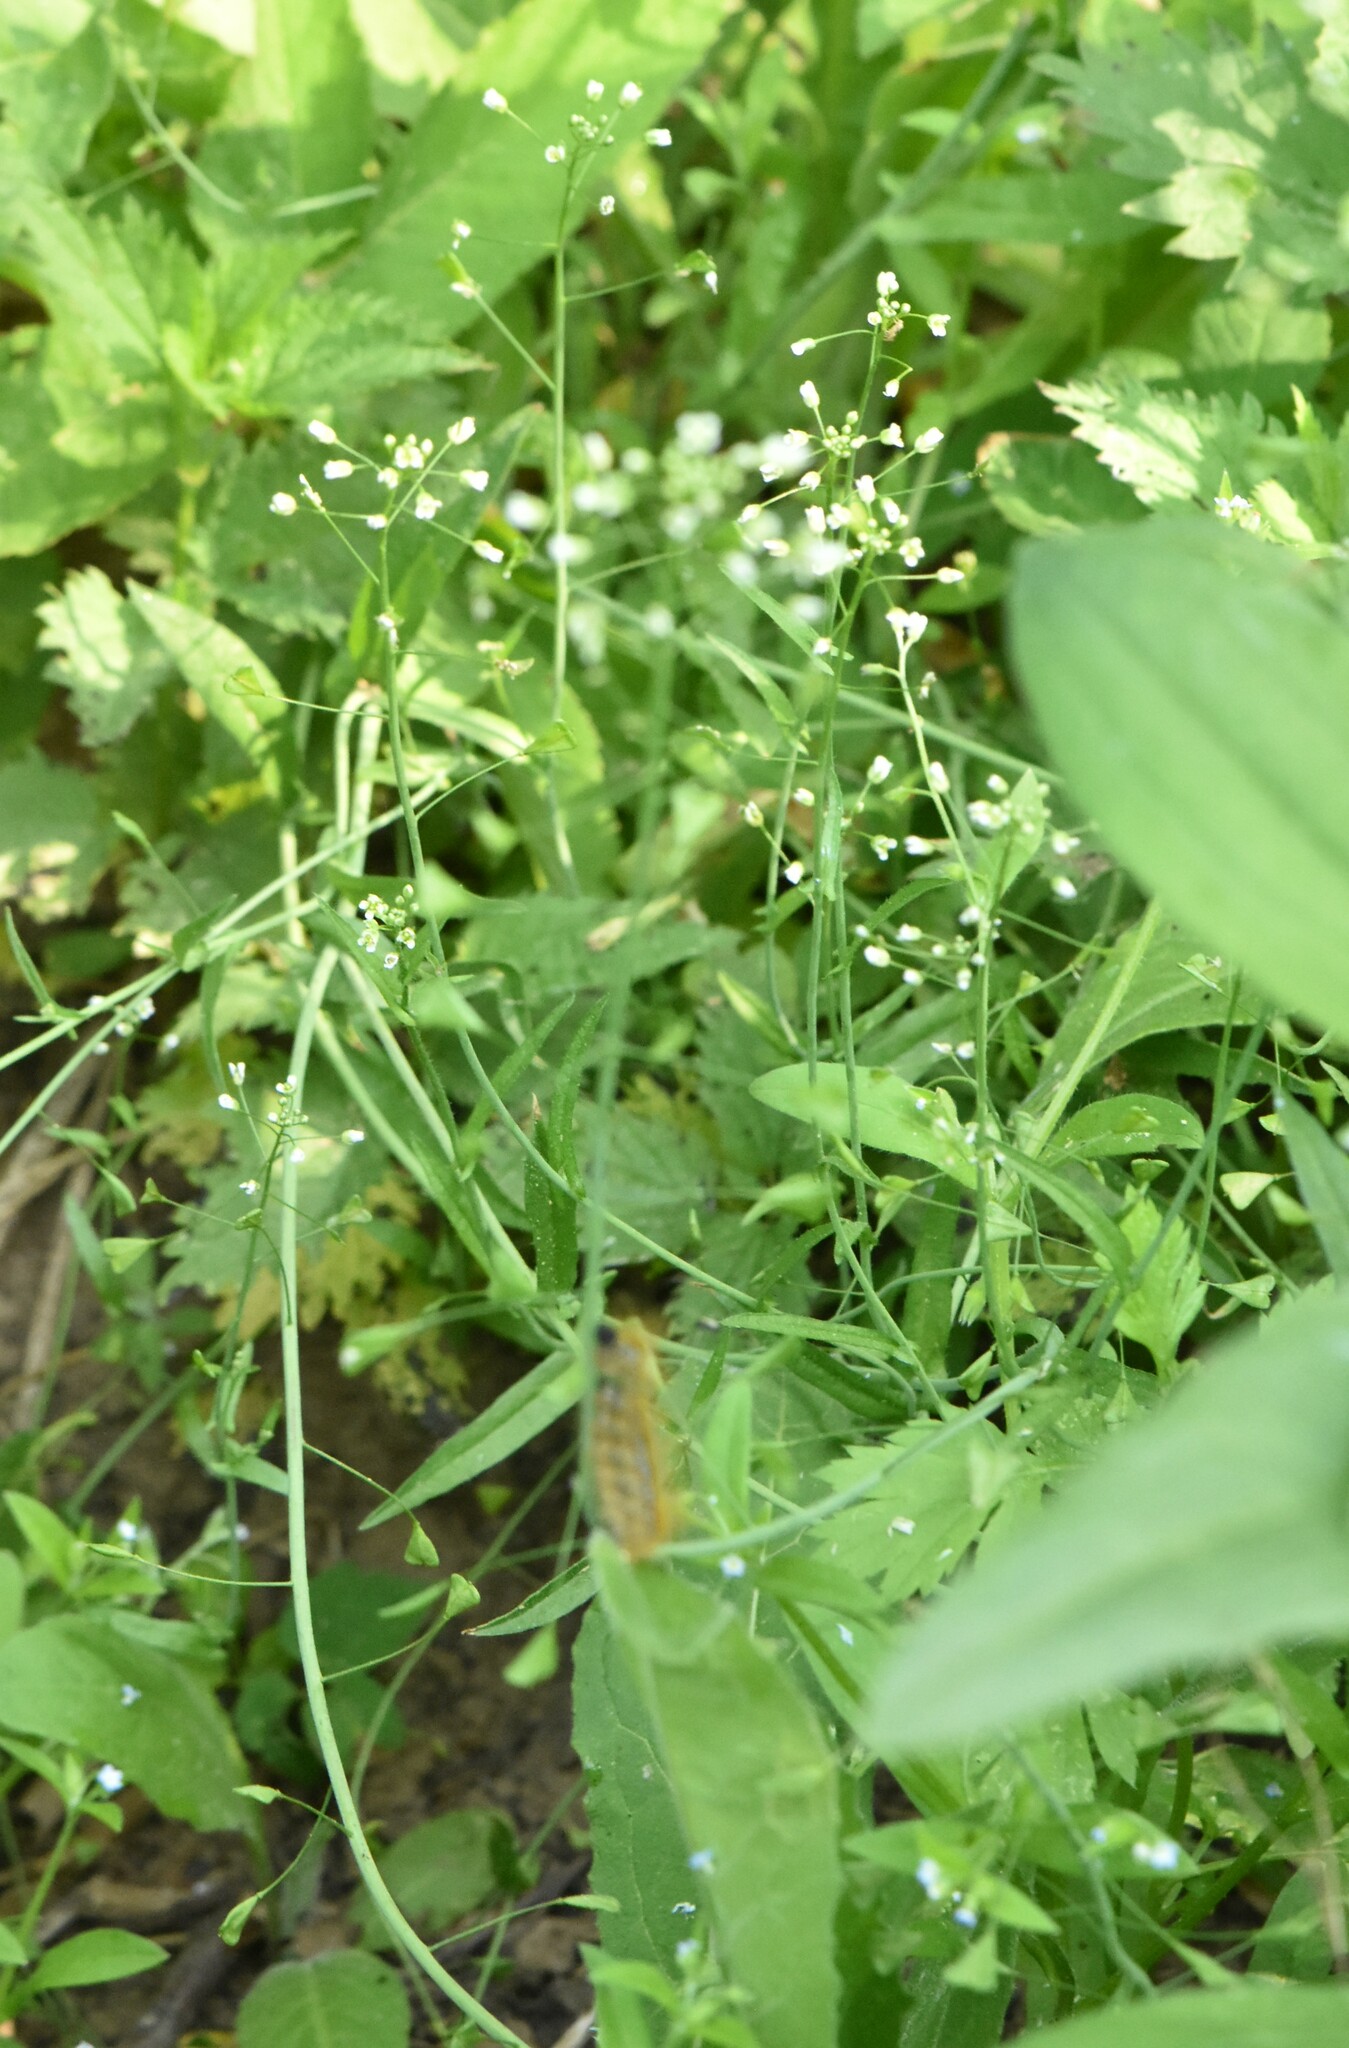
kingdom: Plantae
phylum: Tracheophyta
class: Magnoliopsida
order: Brassicales
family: Brassicaceae
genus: Capsella
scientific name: Capsella bursa-pastoris
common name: Shepherd's purse
